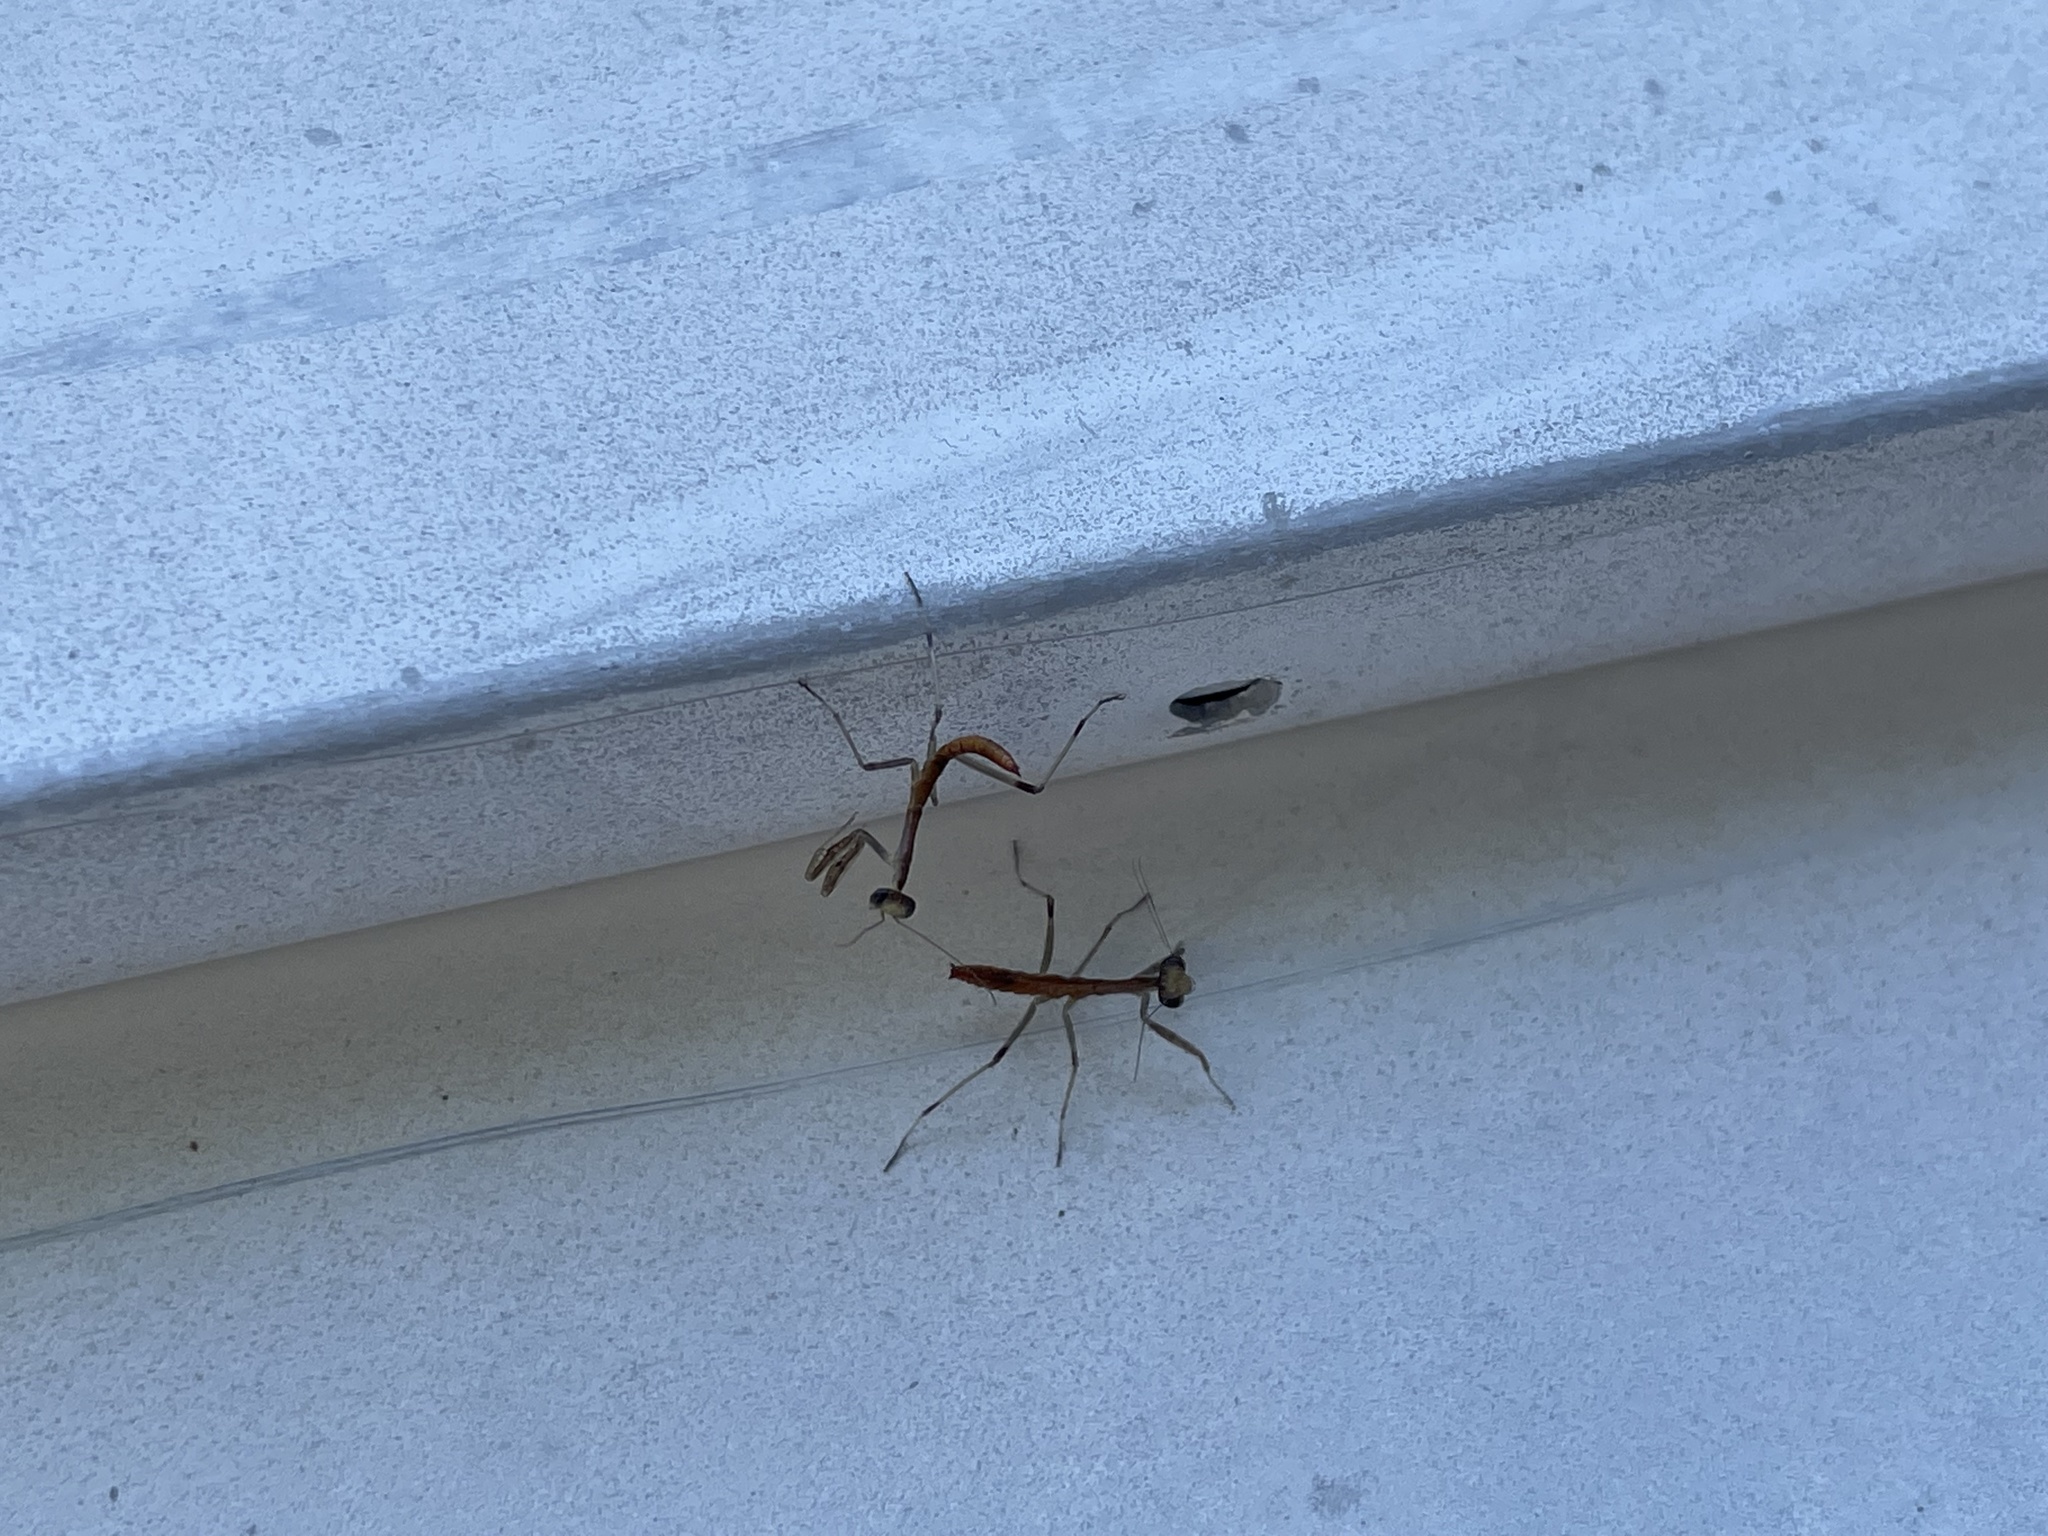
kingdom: Animalia
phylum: Arthropoda
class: Insecta
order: Mantodea
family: Mantidae
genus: Stagmomantis
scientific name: Stagmomantis carolina
